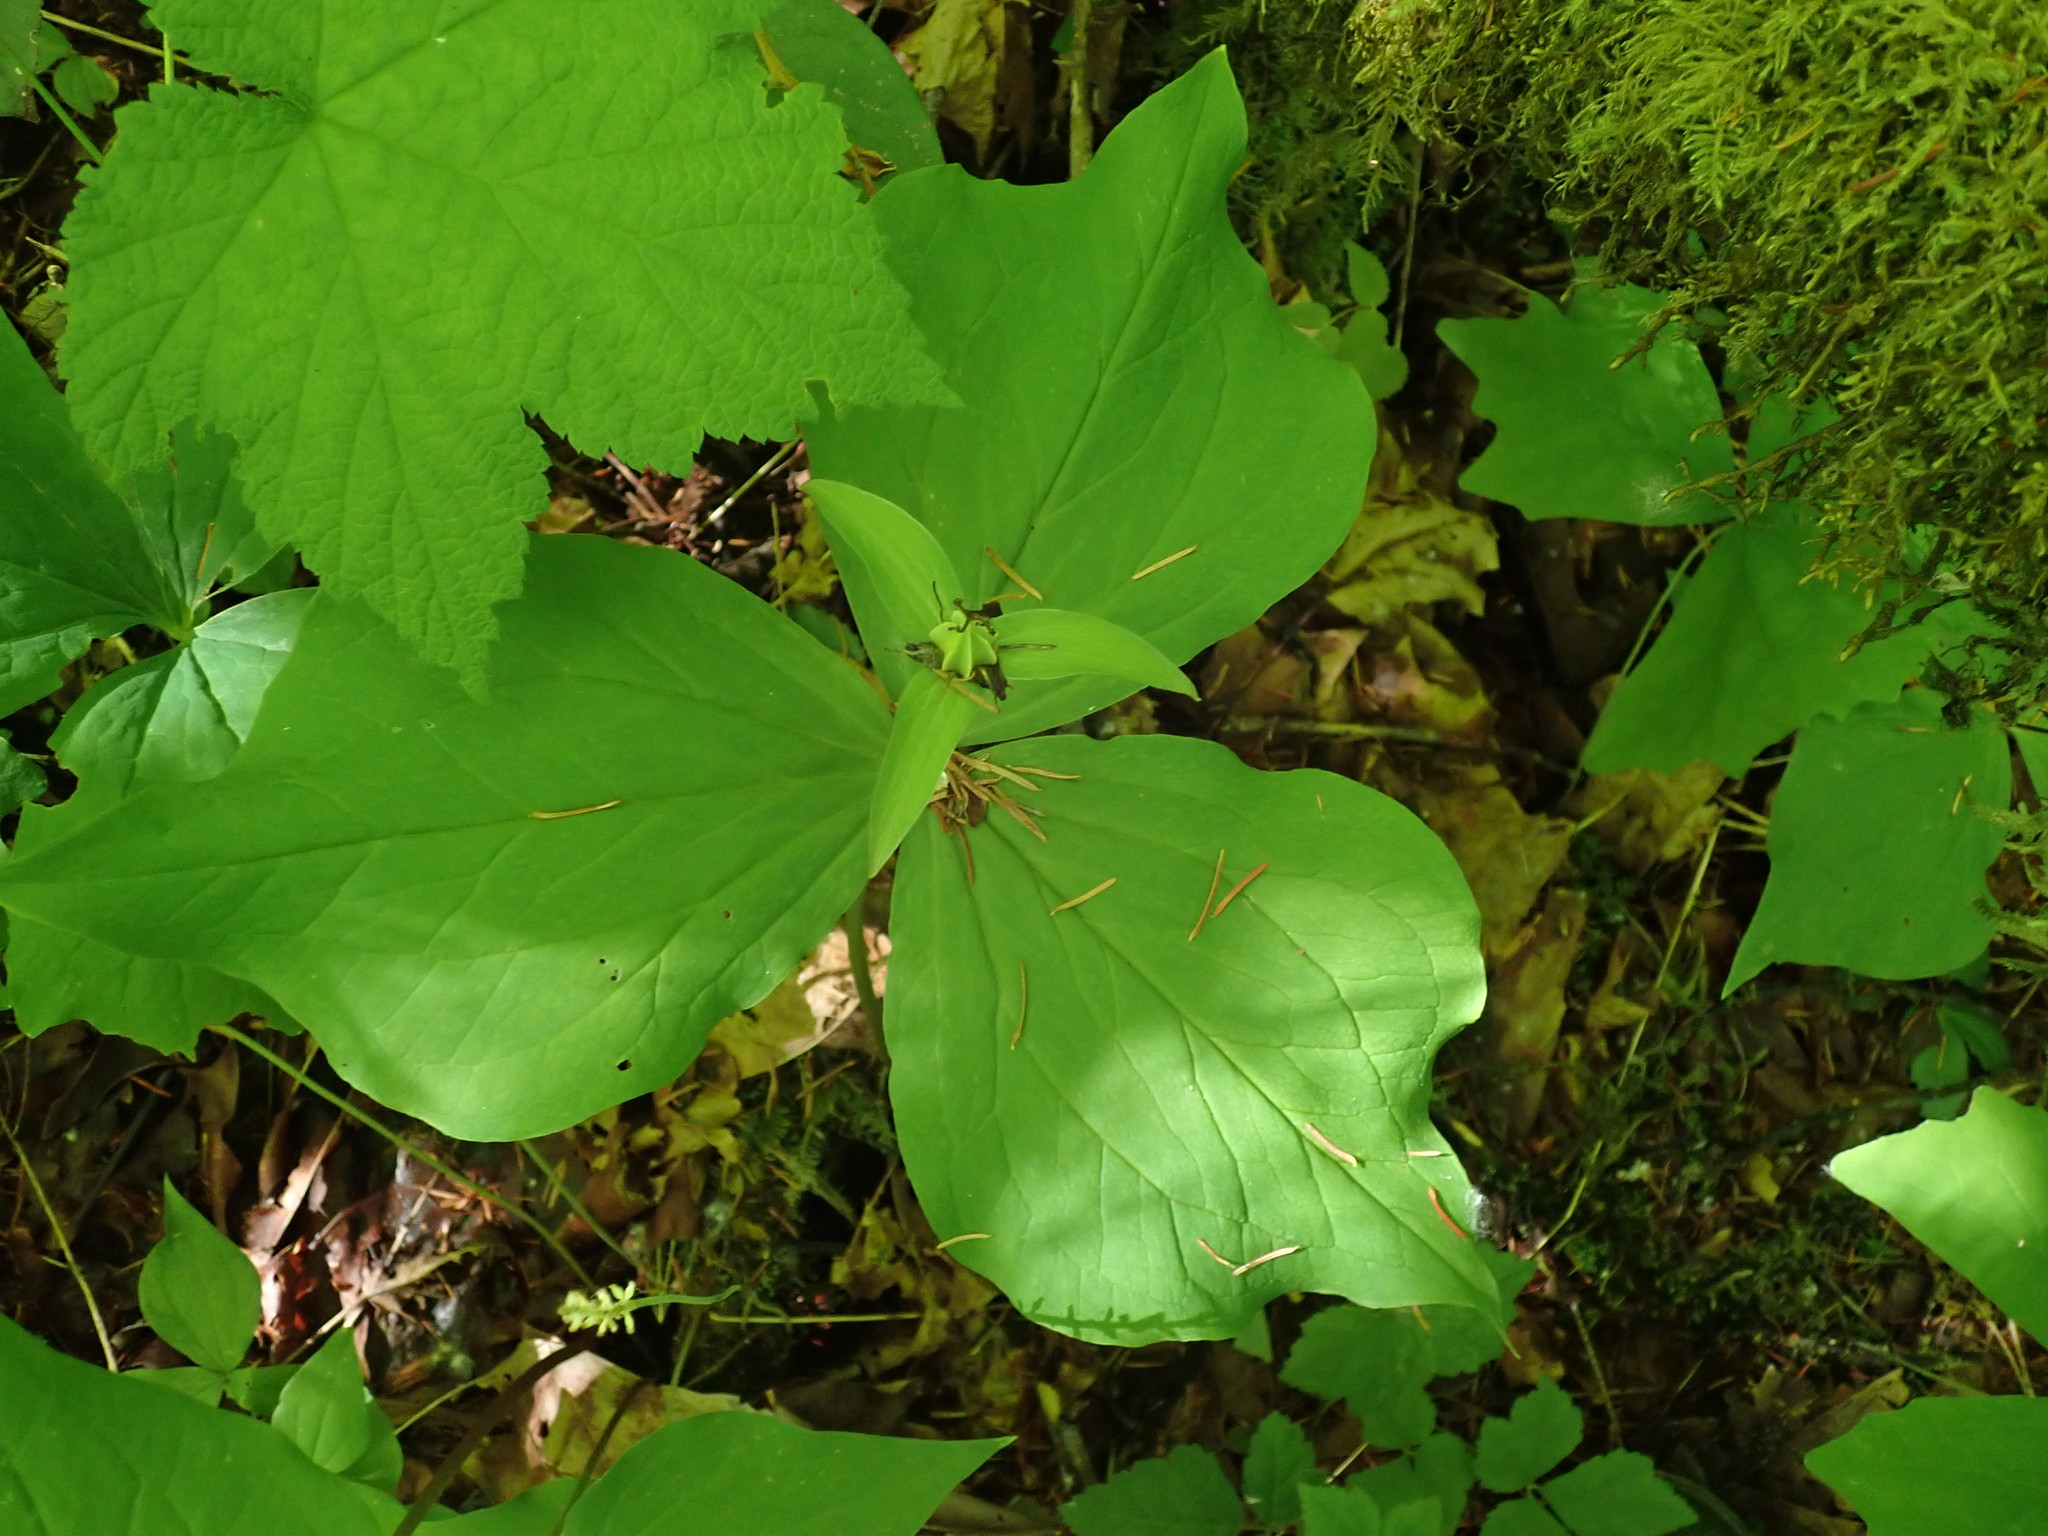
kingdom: Plantae
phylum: Tracheophyta
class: Liliopsida
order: Liliales
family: Melanthiaceae
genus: Trillium
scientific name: Trillium ovatum
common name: Pacific trillium
